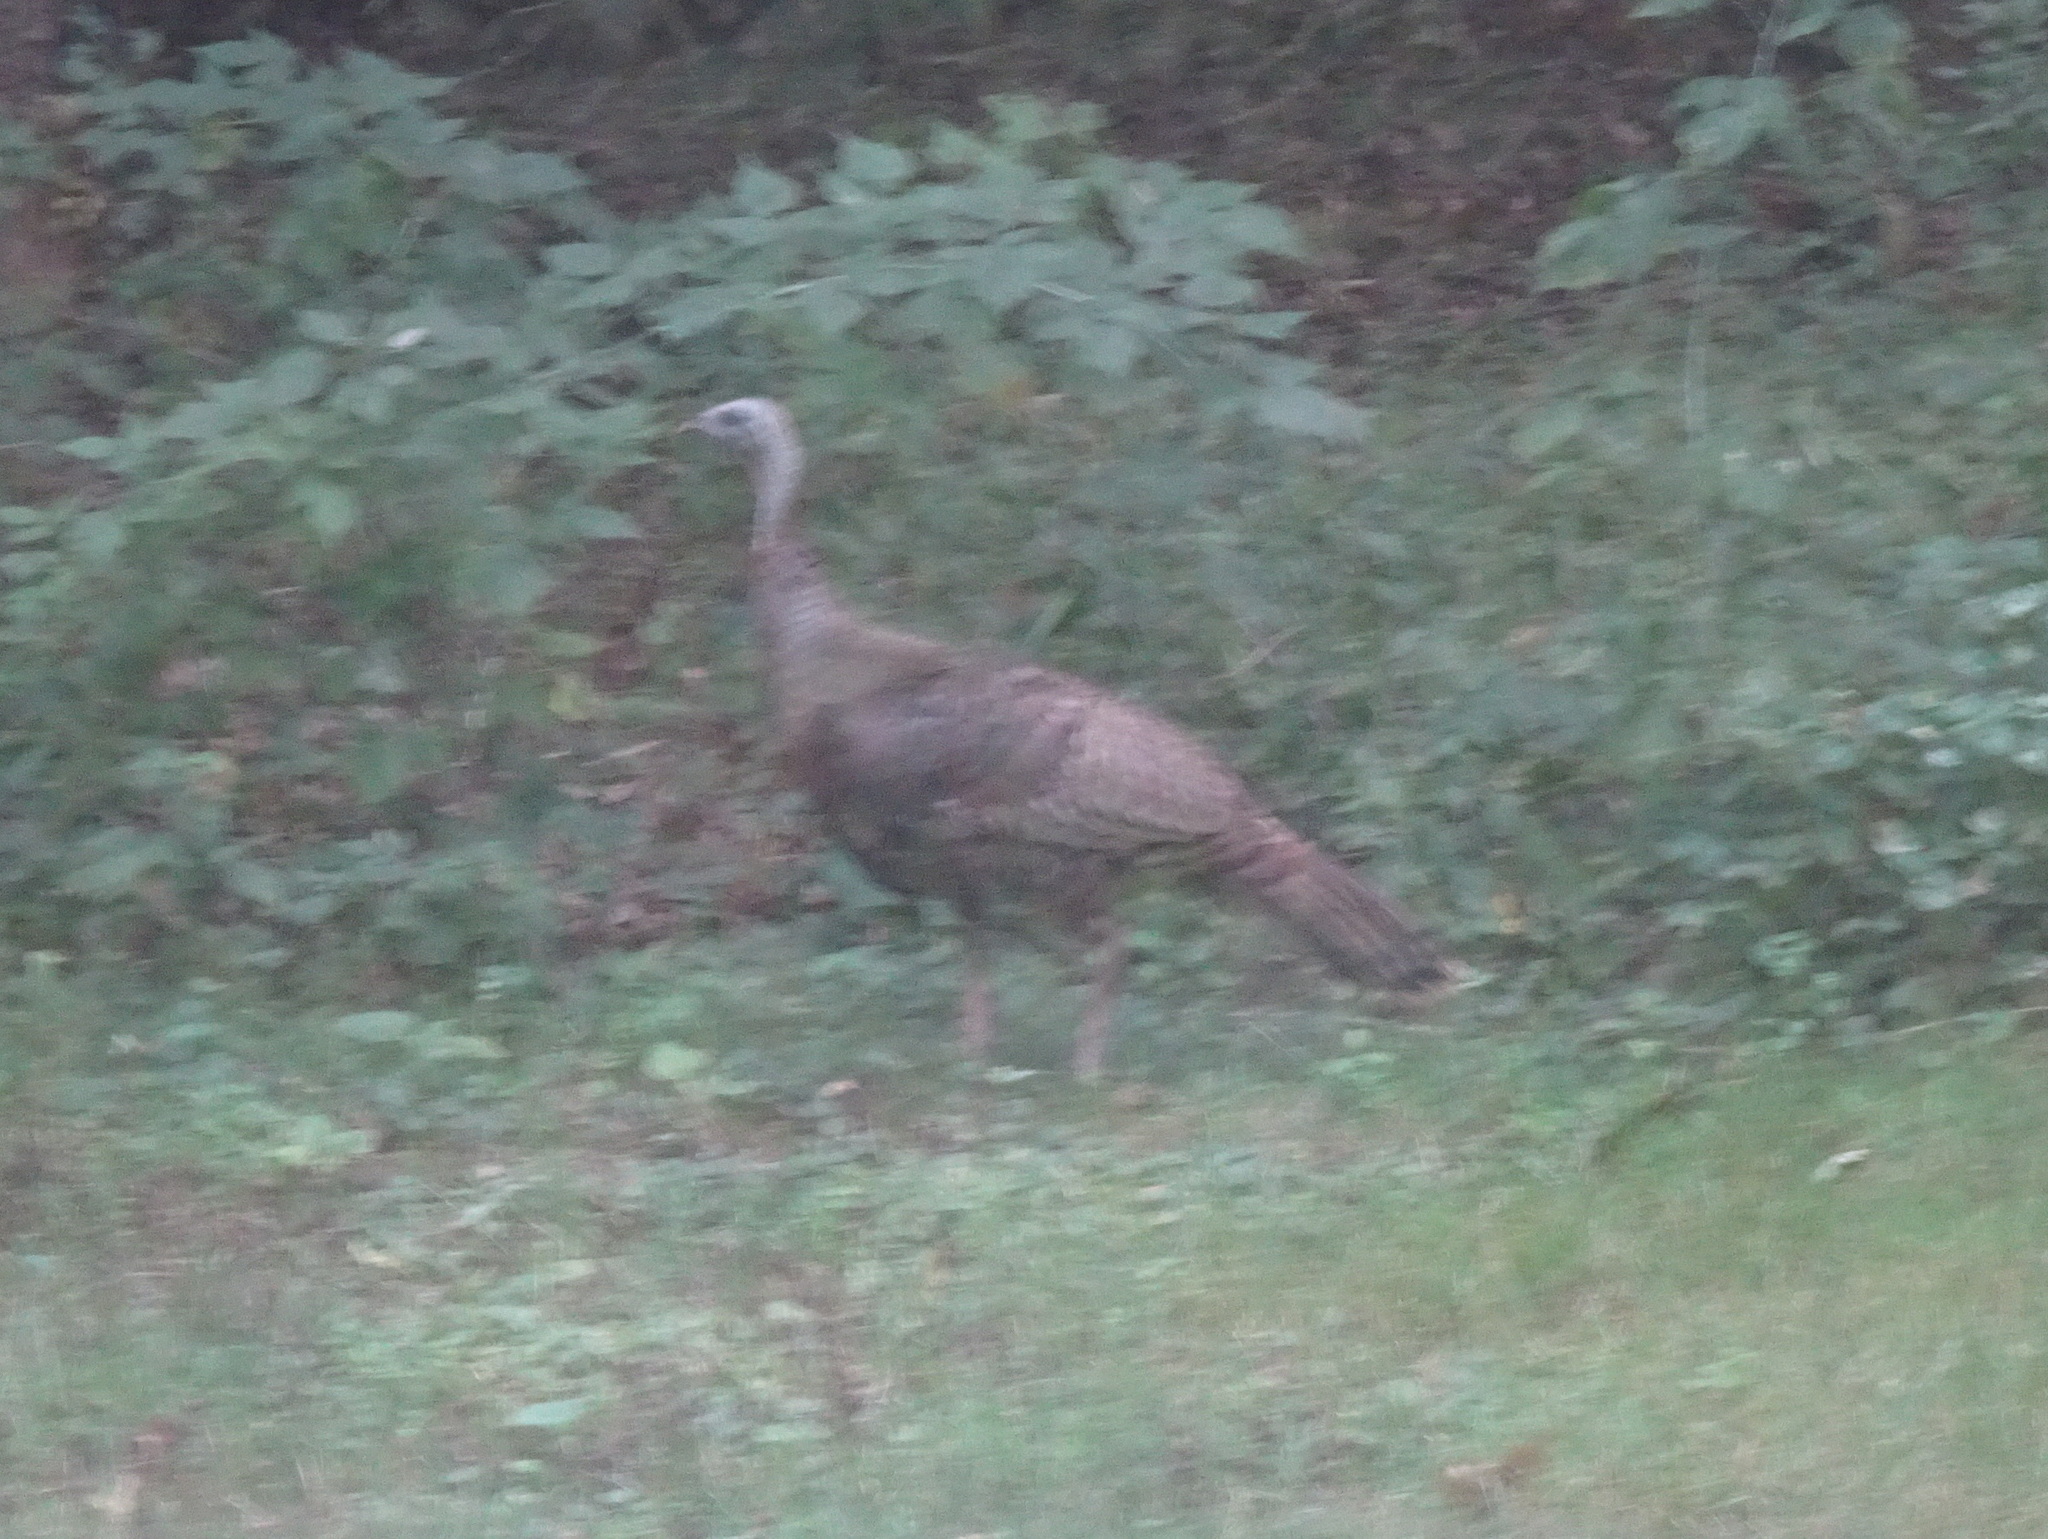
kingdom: Animalia
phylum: Chordata
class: Aves
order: Galliformes
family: Phasianidae
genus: Meleagris
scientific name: Meleagris gallopavo
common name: Wild turkey
